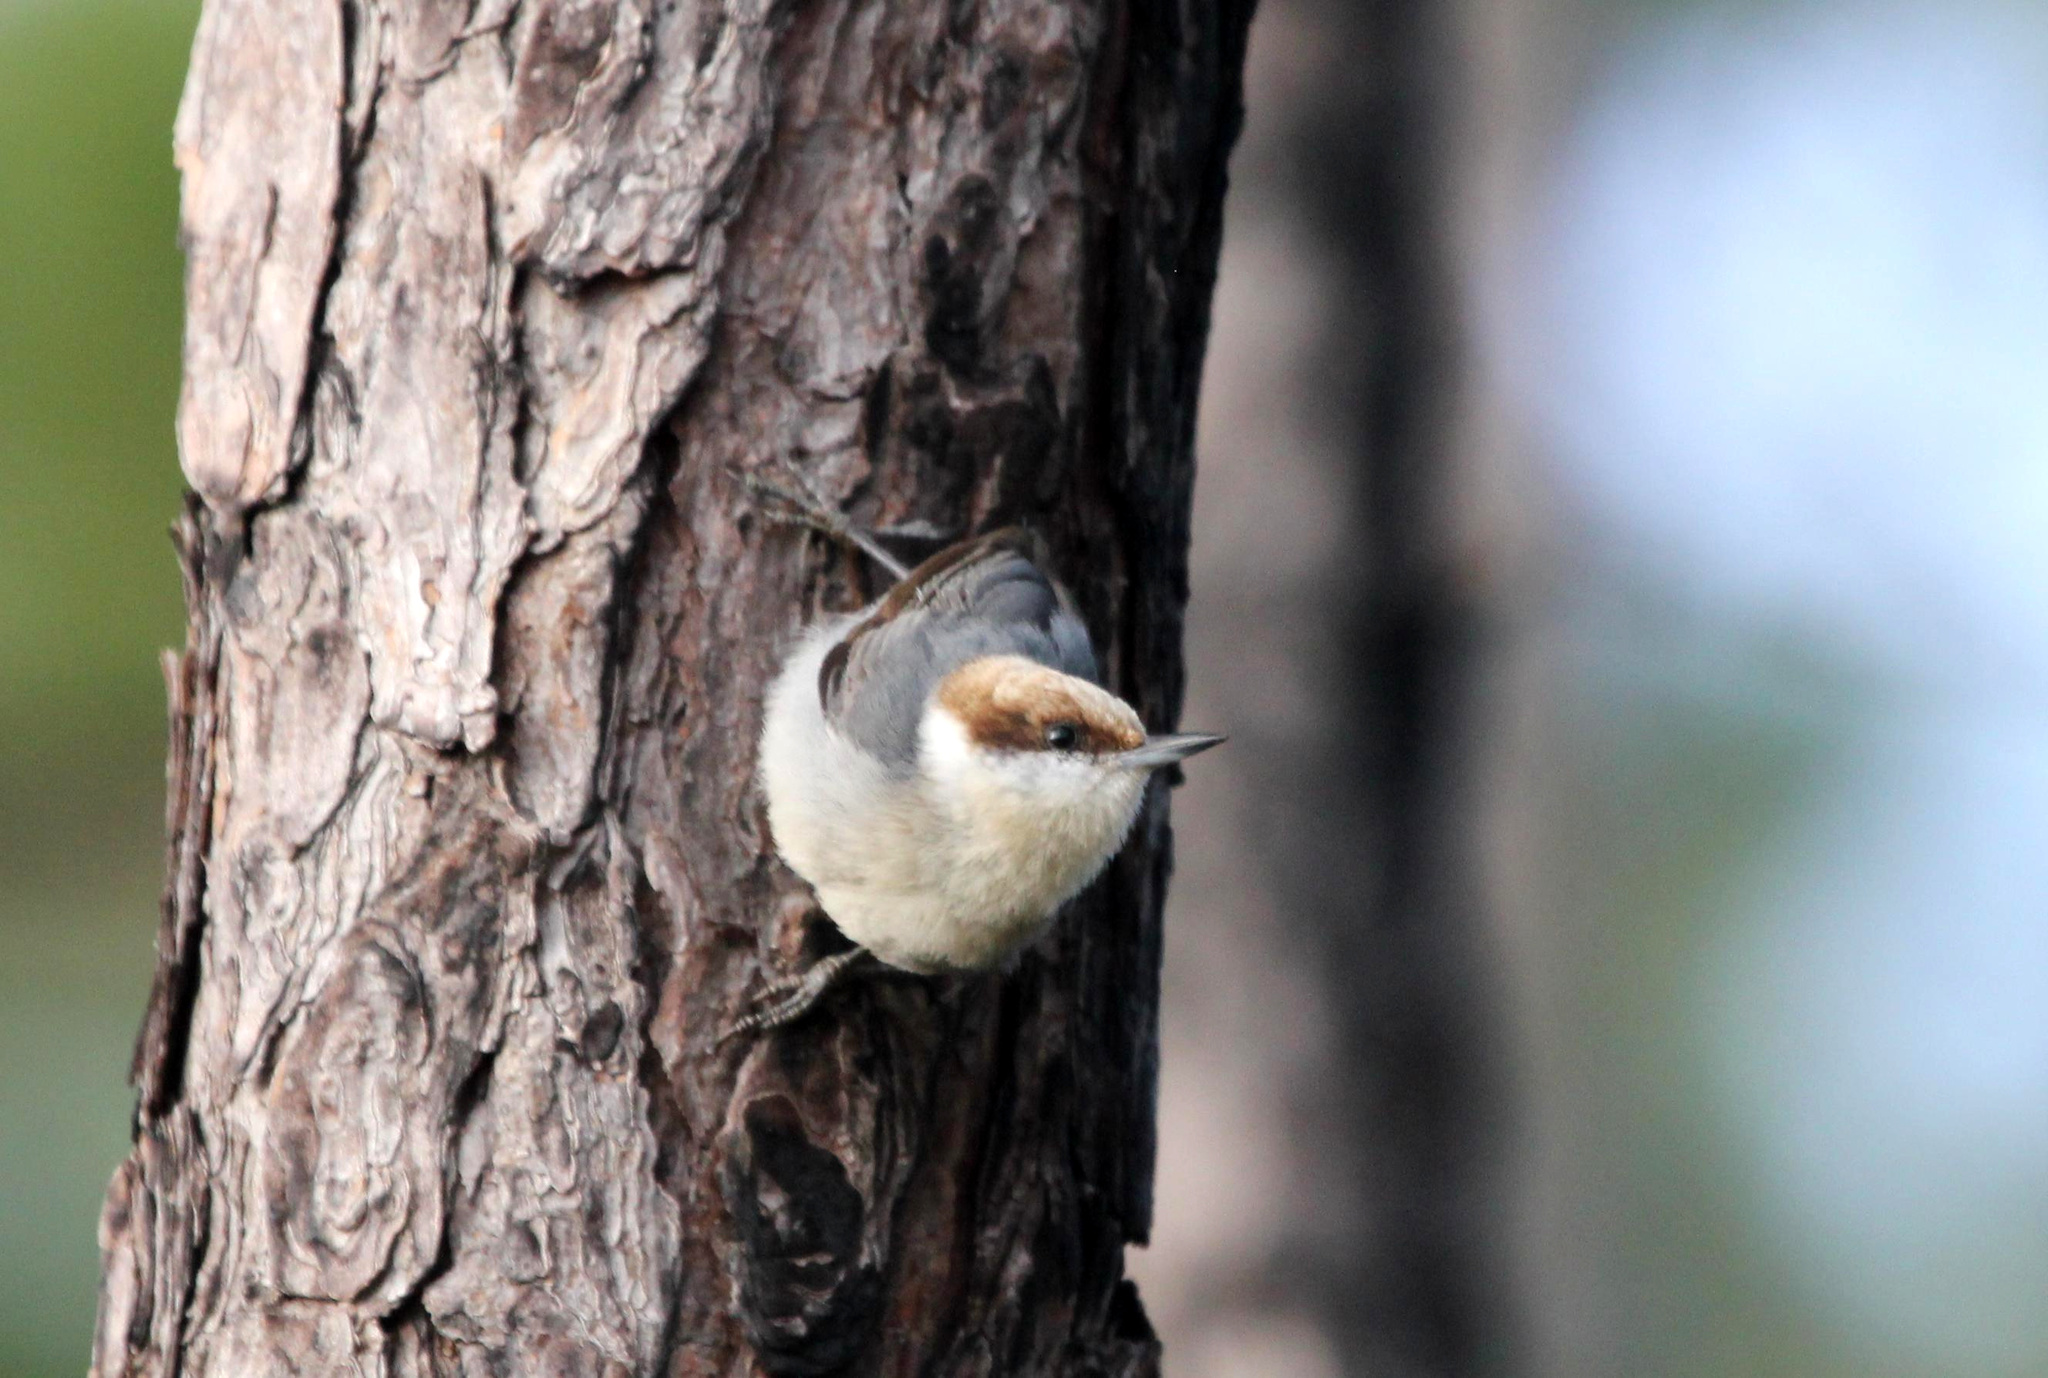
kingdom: Animalia
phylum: Chordata
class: Aves
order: Passeriformes
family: Sittidae
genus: Sitta
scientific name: Sitta pusilla
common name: Brown-headed nuthatch
